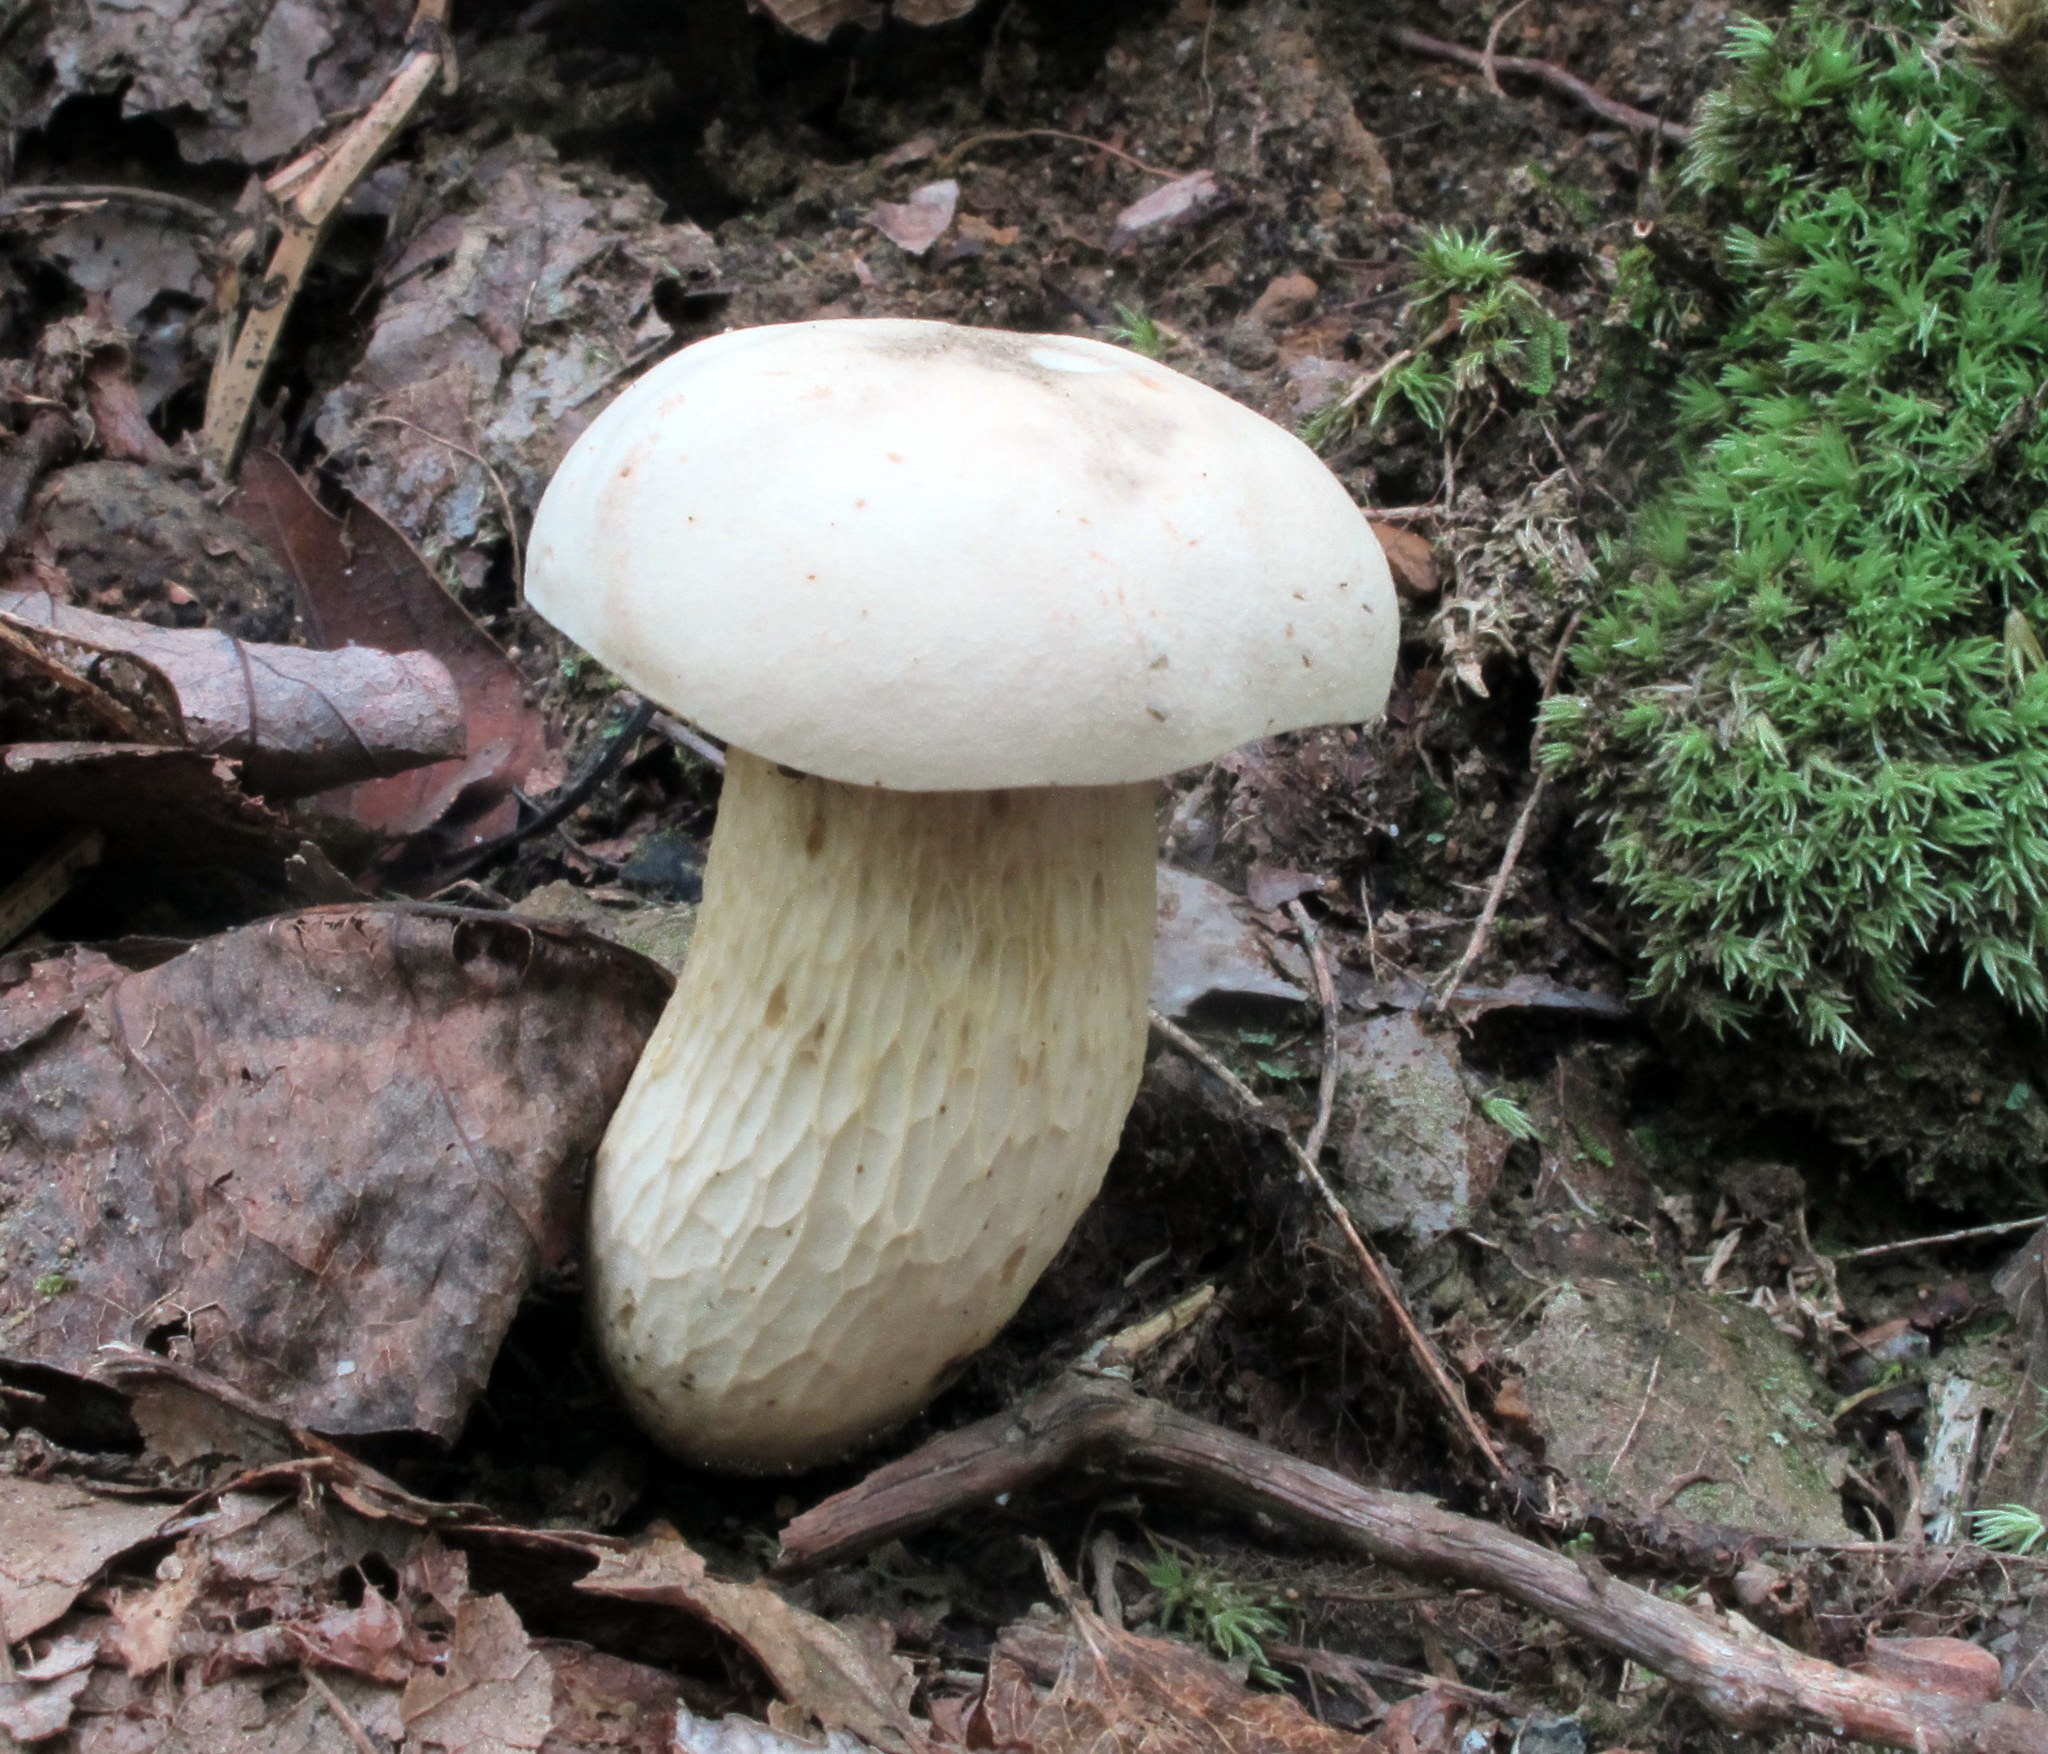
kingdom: Fungi
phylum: Basidiomycota
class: Agaricomycetes
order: Boletales
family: Boletaceae
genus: Retiboletus
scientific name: Retiboletus griseus
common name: Grey bolete
